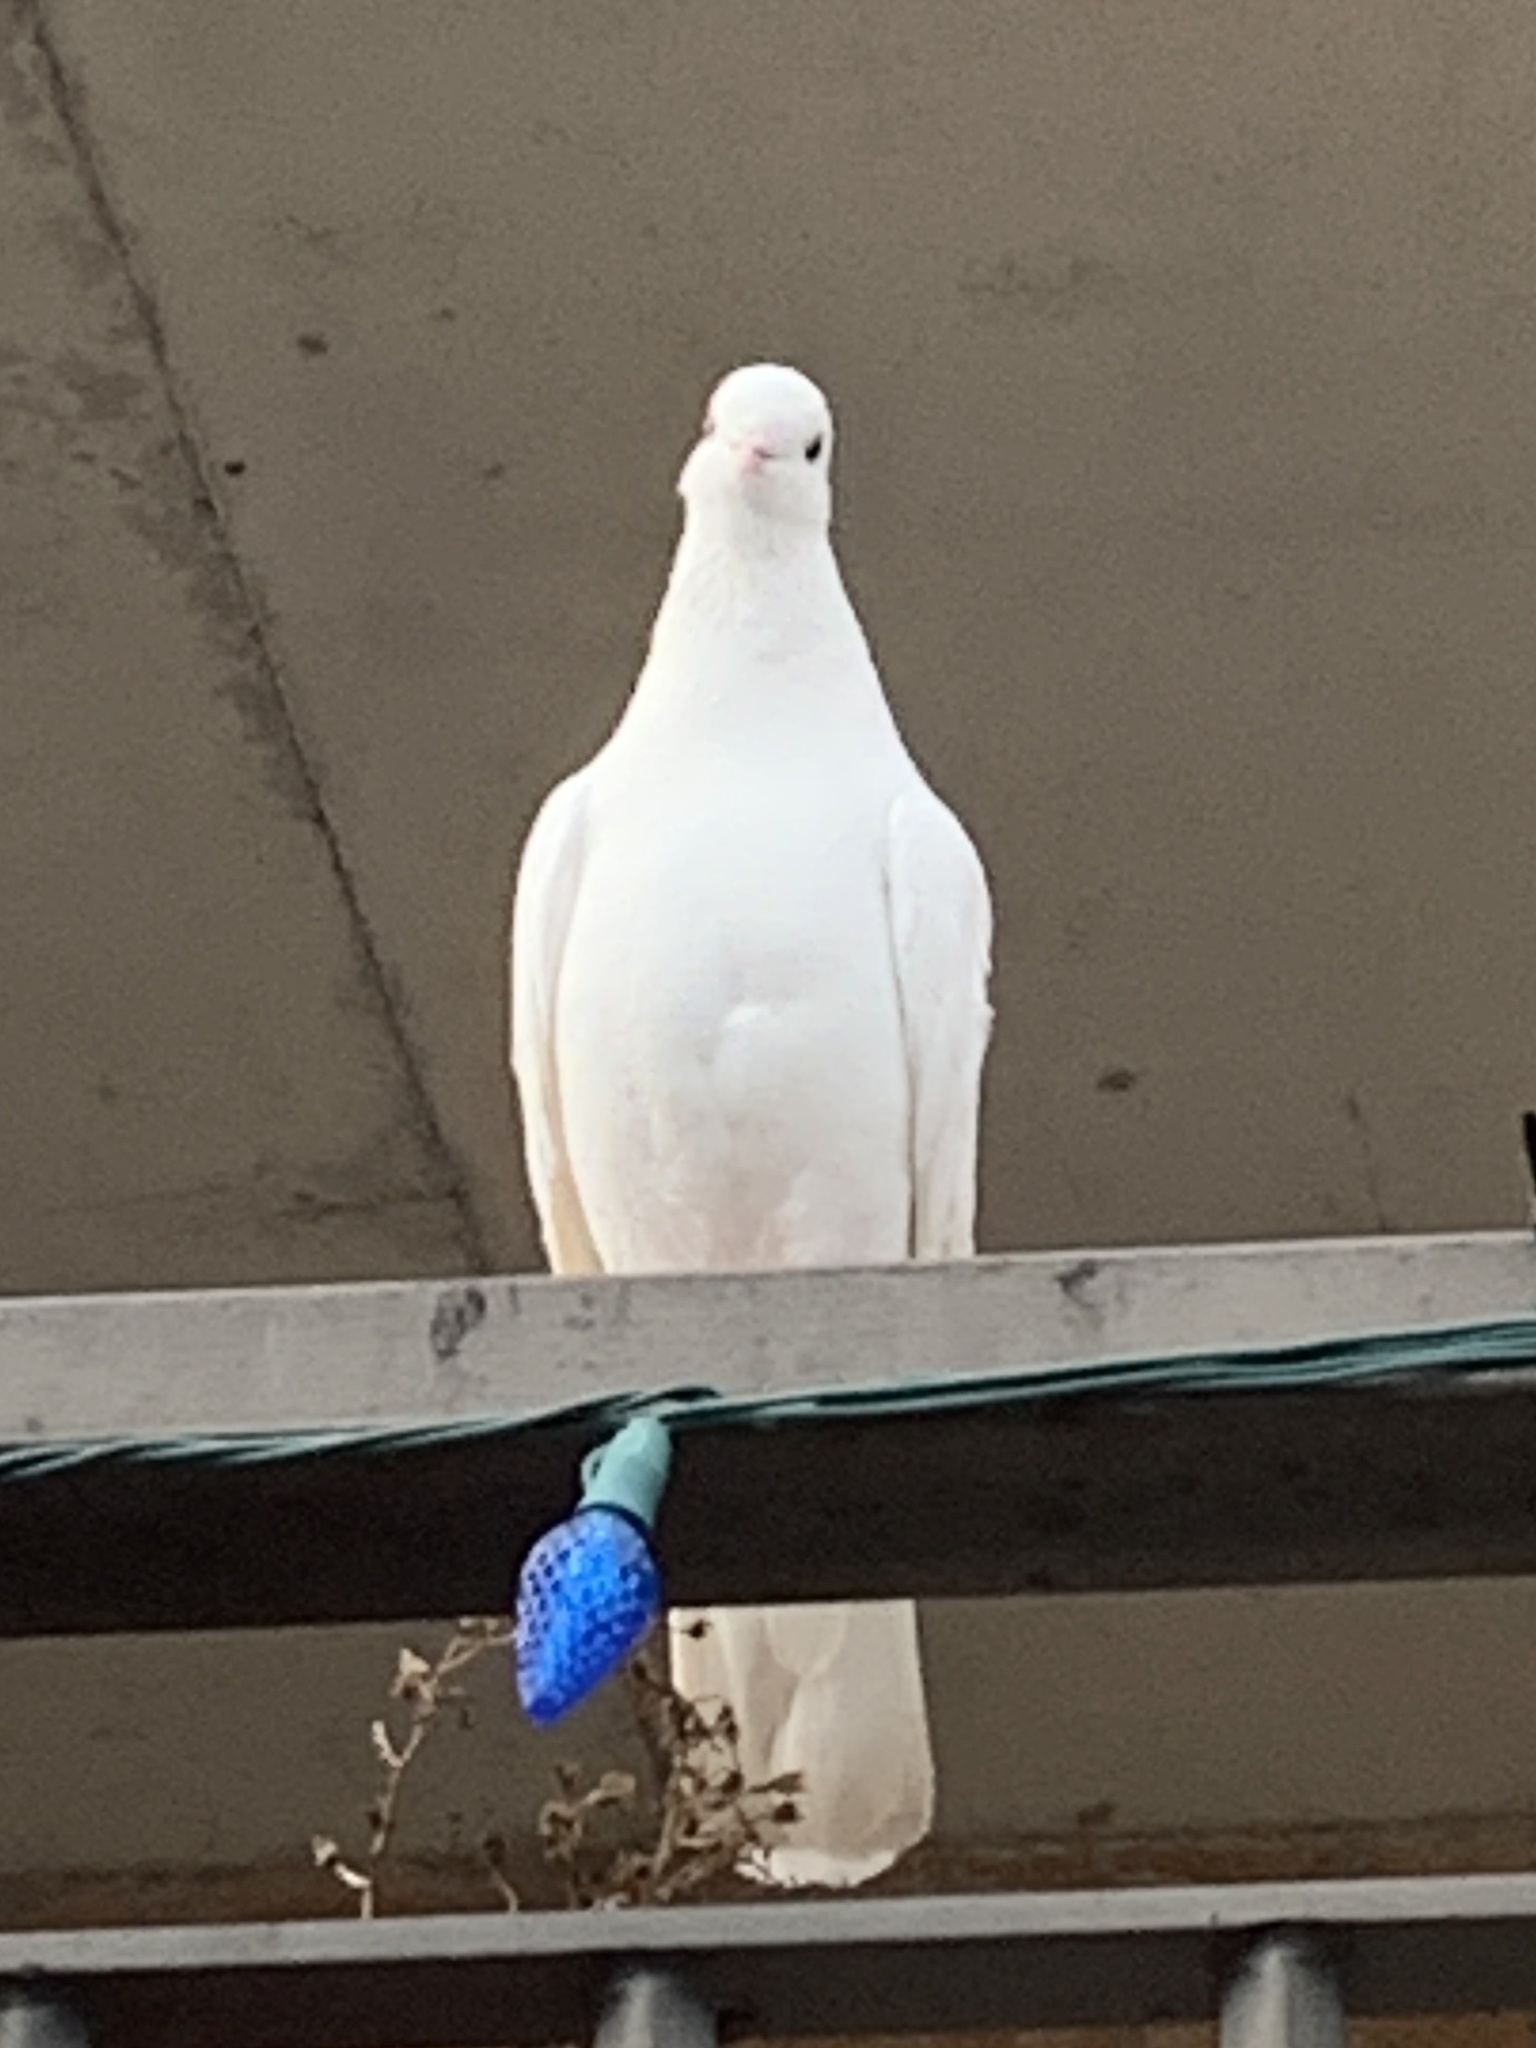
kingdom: Animalia
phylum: Chordata
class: Aves
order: Columbiformes
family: Columbidae
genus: Columba
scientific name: Columba livia
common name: Rock pigeon
